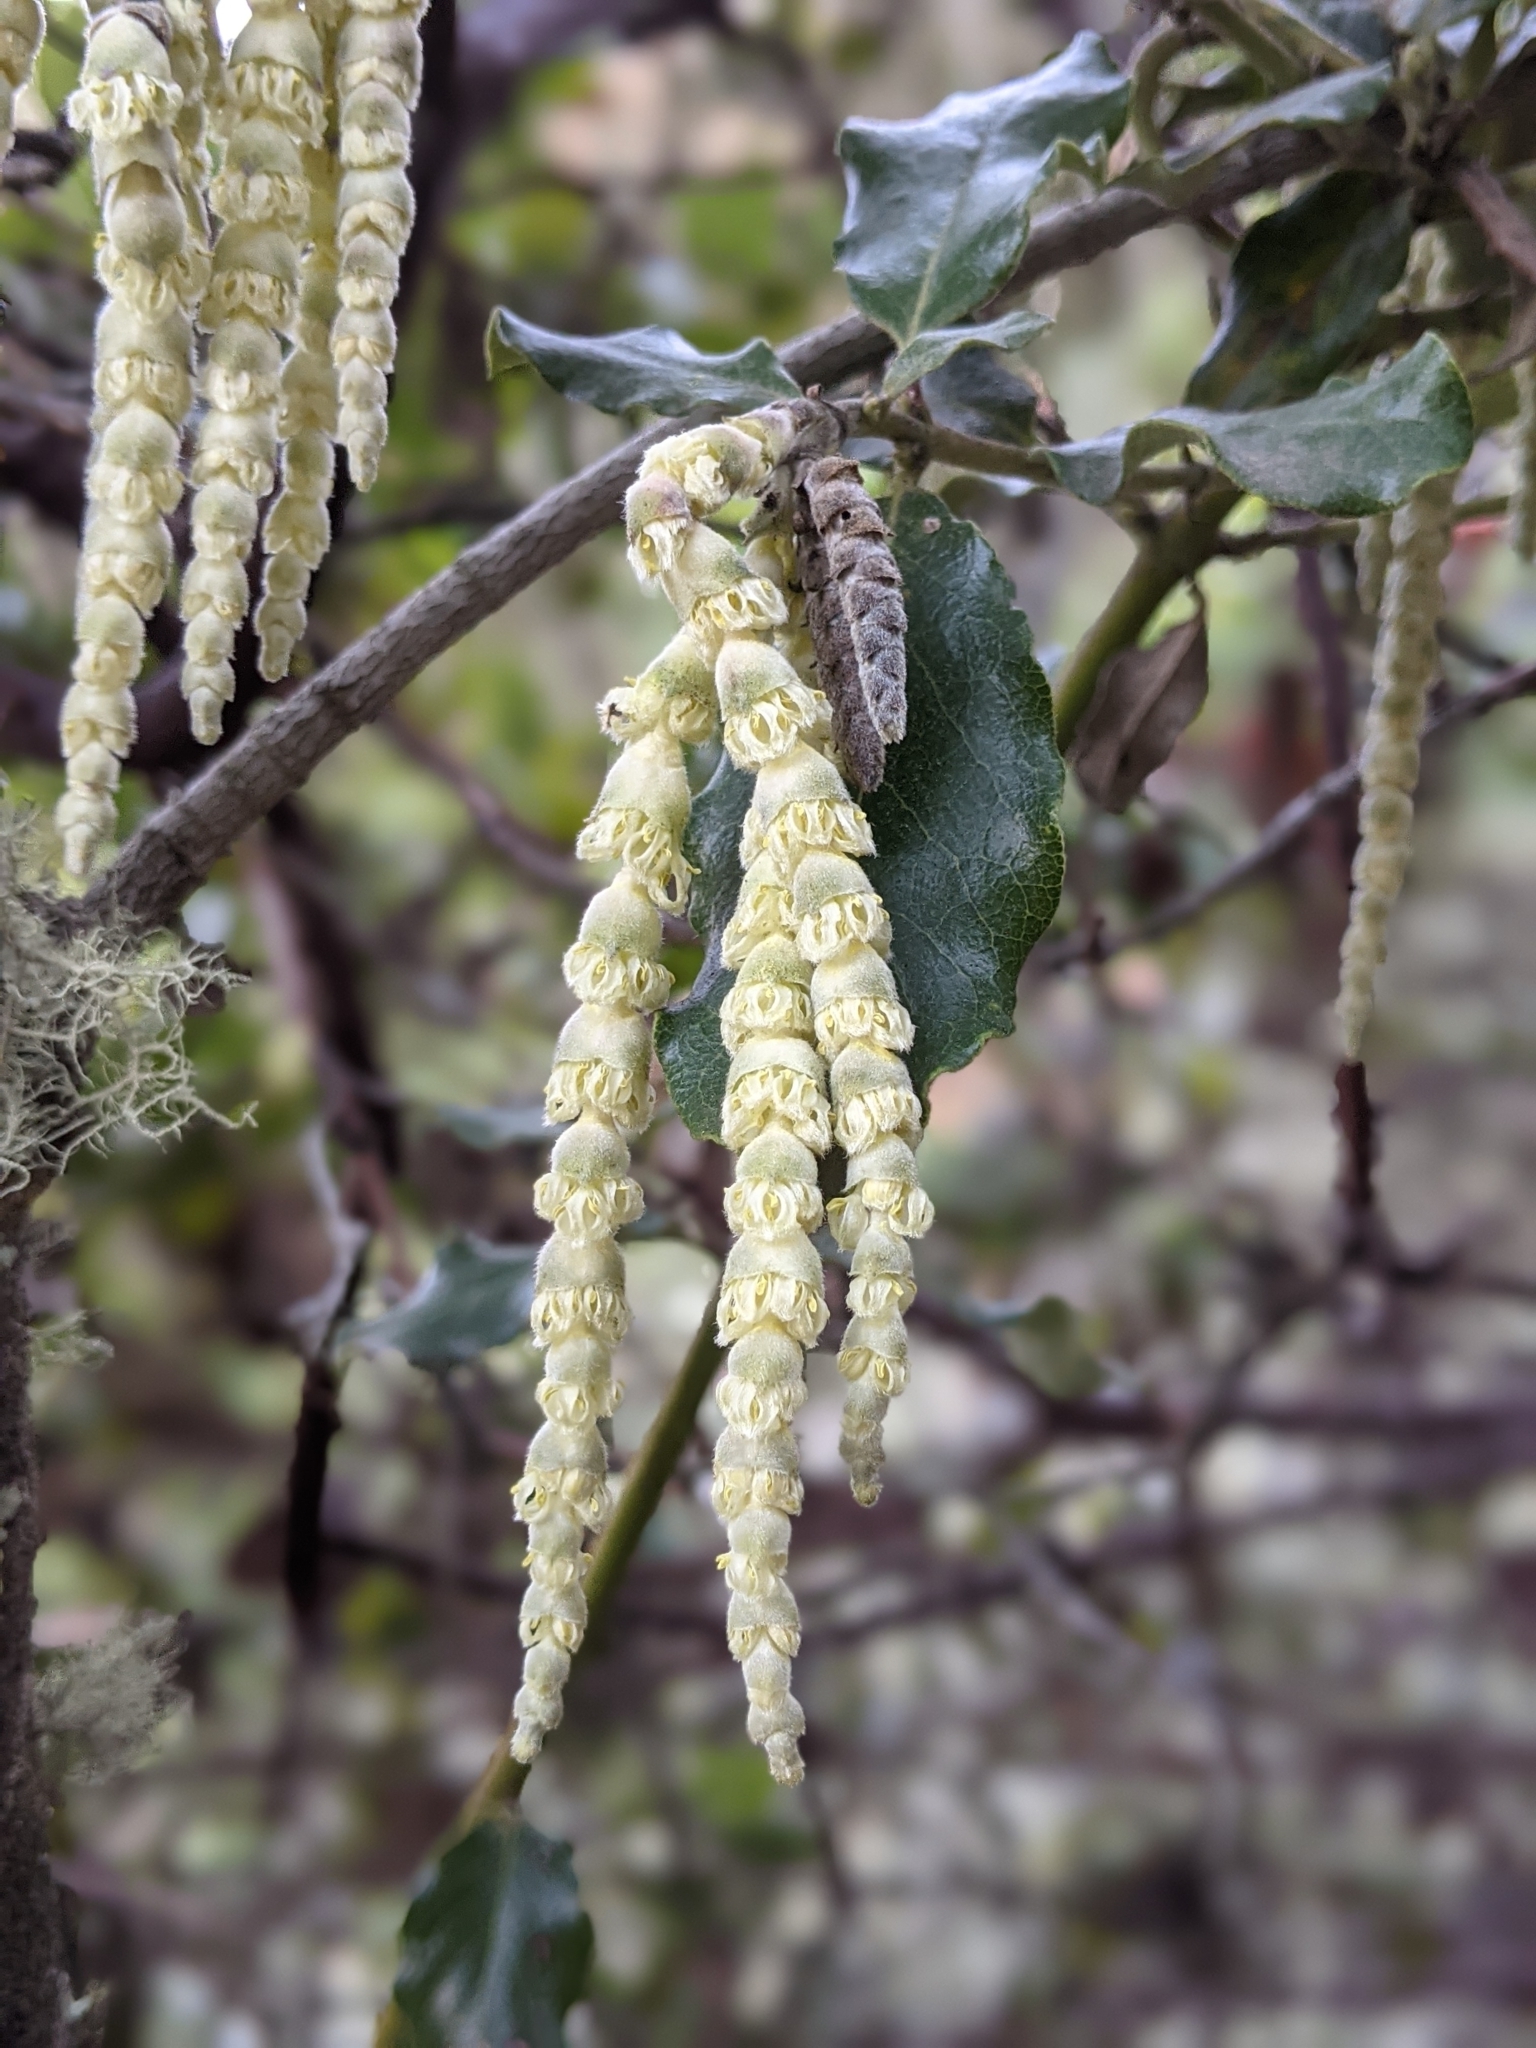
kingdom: Plantae
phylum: Tracheophyta
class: Magnoliopsida
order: Garryales
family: Garryaceae
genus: Garrya
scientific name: Garrya elliptica
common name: Silk-tassel
